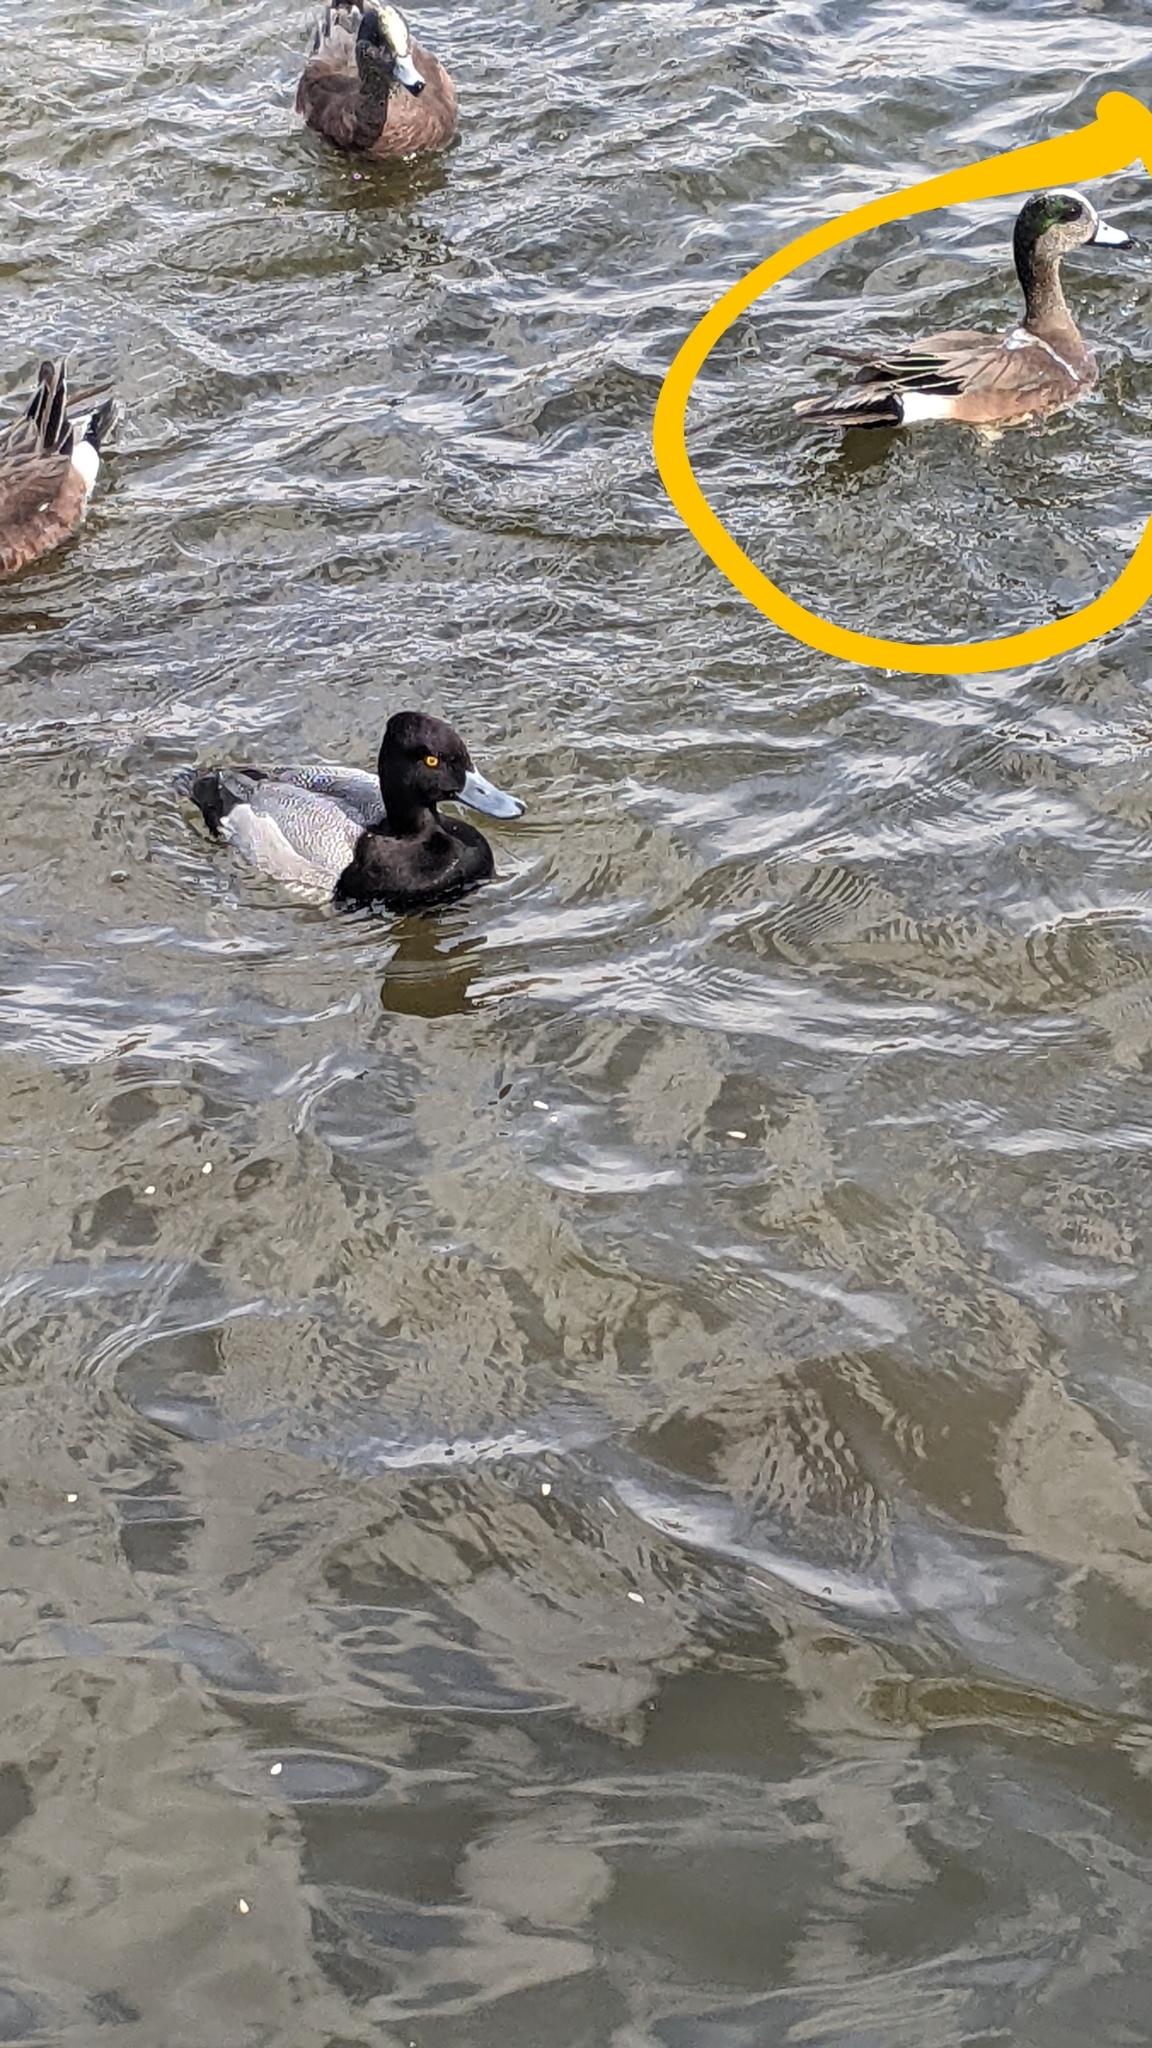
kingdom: Animalia
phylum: Chordata
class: Aves
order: Anseriformes
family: Anatidae
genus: Mareca
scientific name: Mareca americana
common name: American wigeon
